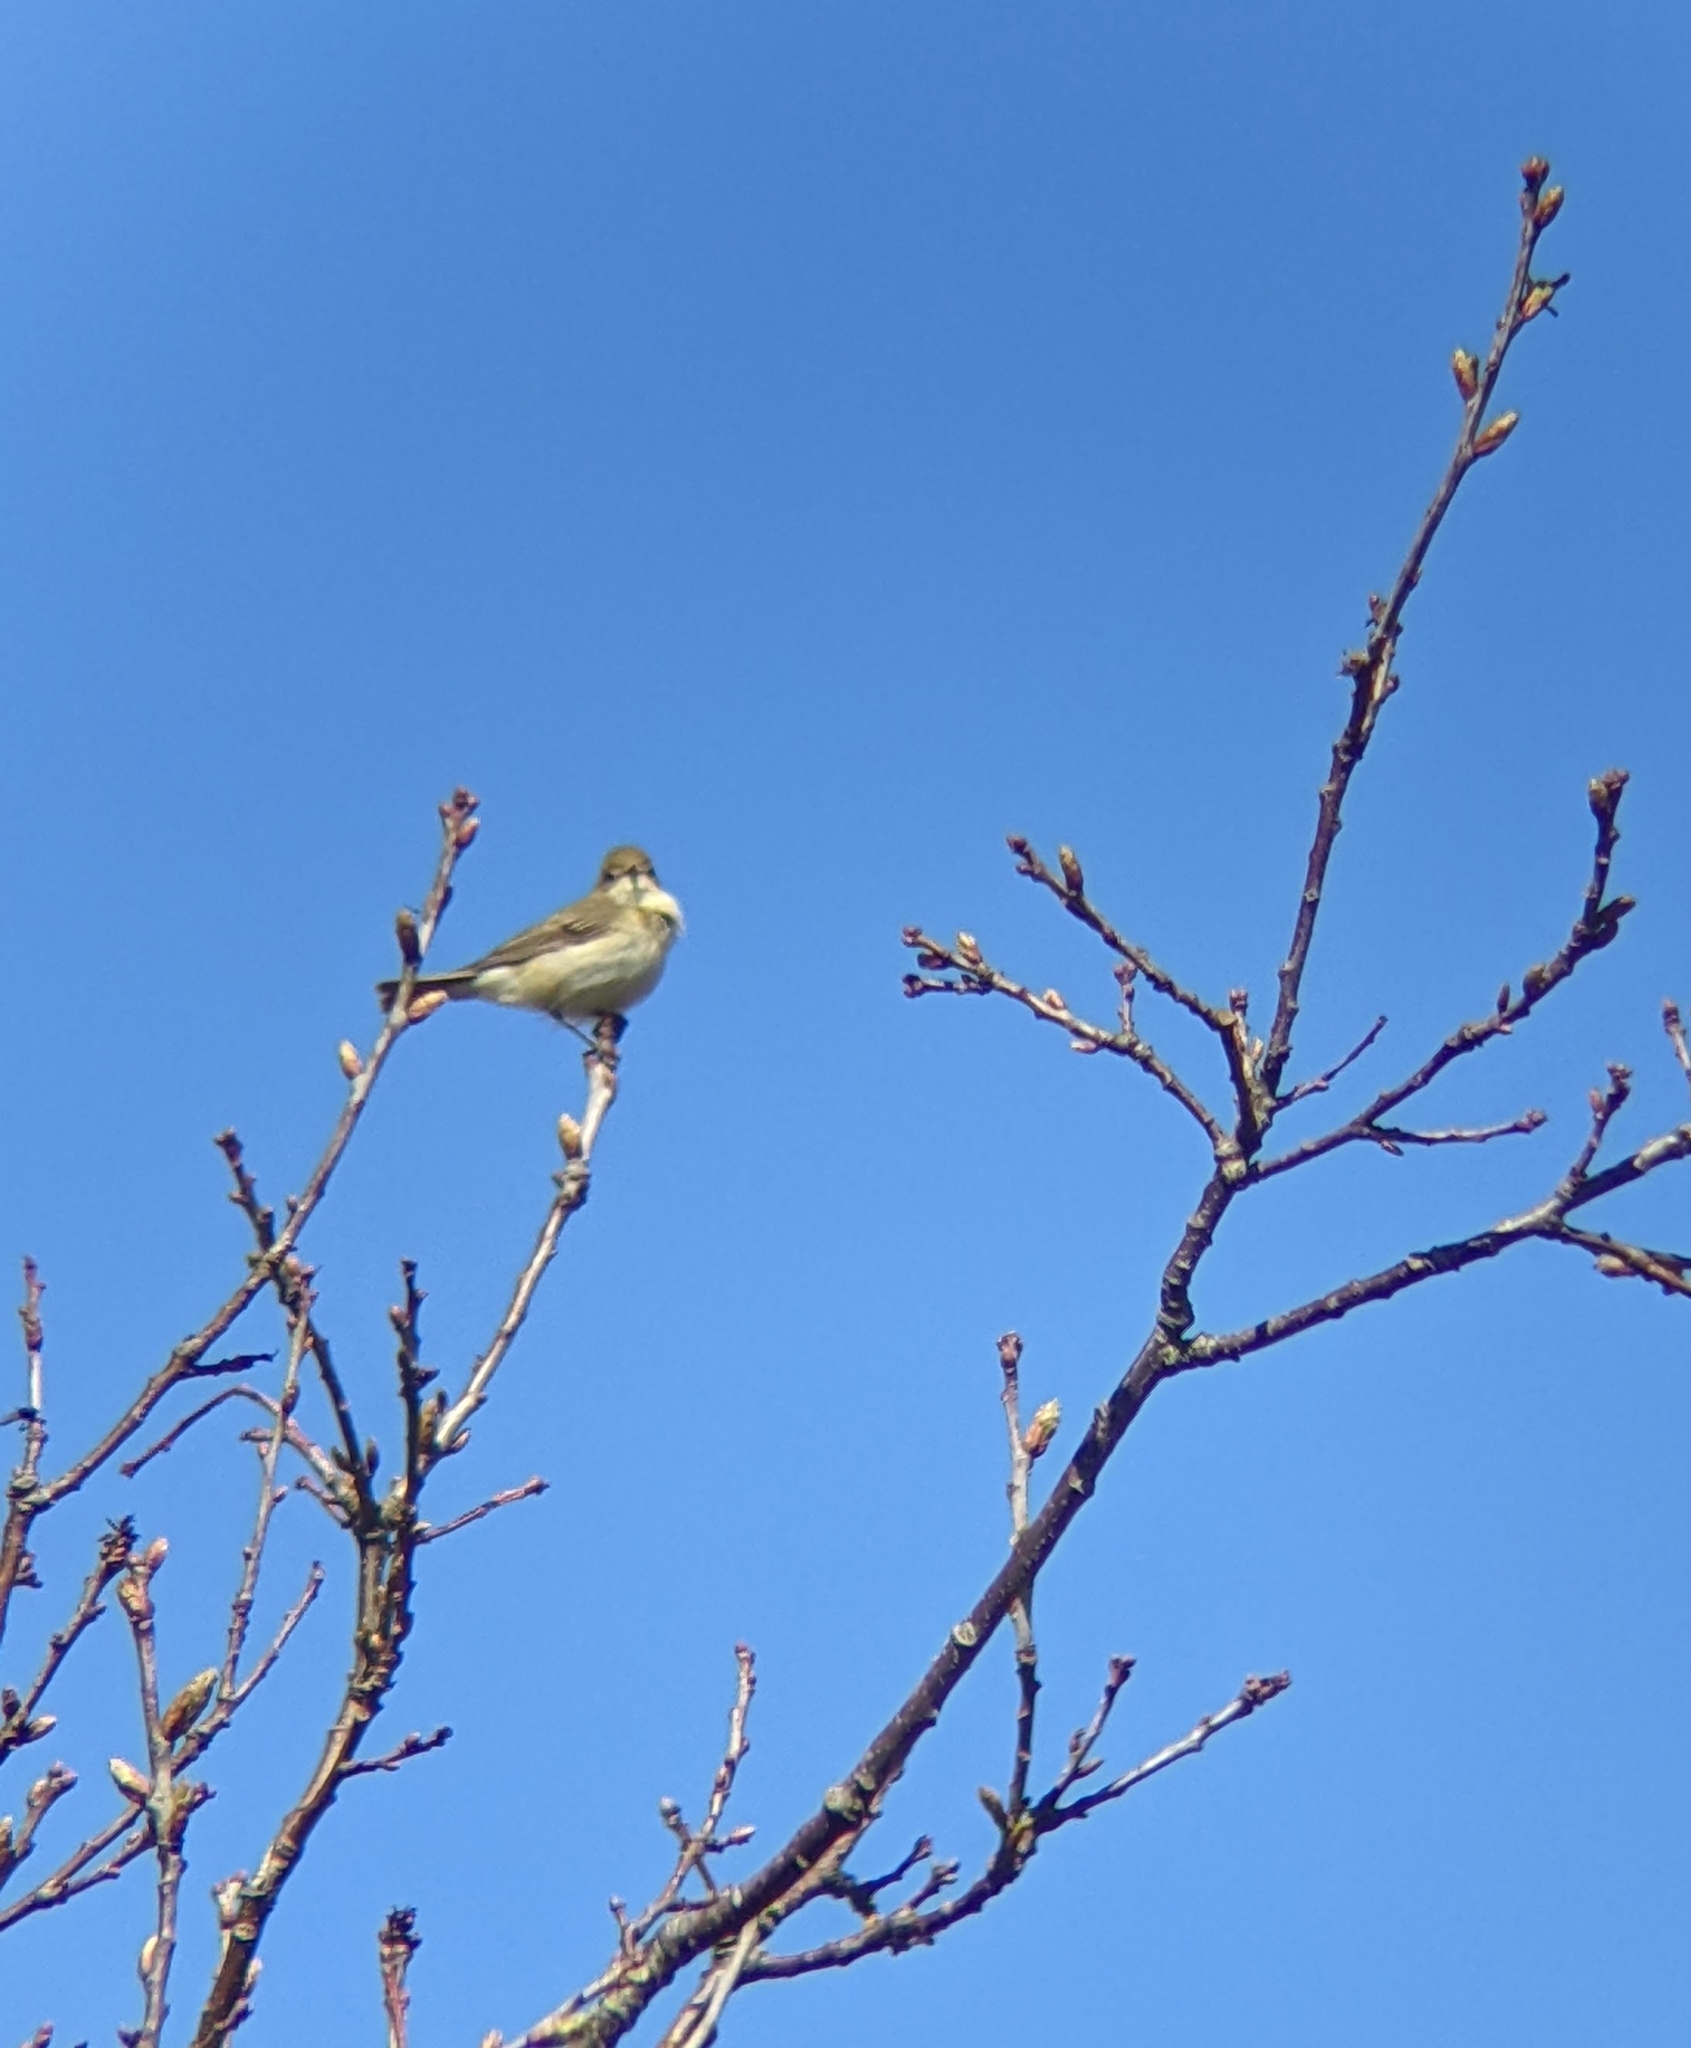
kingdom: Animalia
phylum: Chordata
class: Aves
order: Passeriformes
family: Phylloscopidae
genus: Phylloscopus
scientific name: Phylloscopus trochilus
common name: Willow warbler
